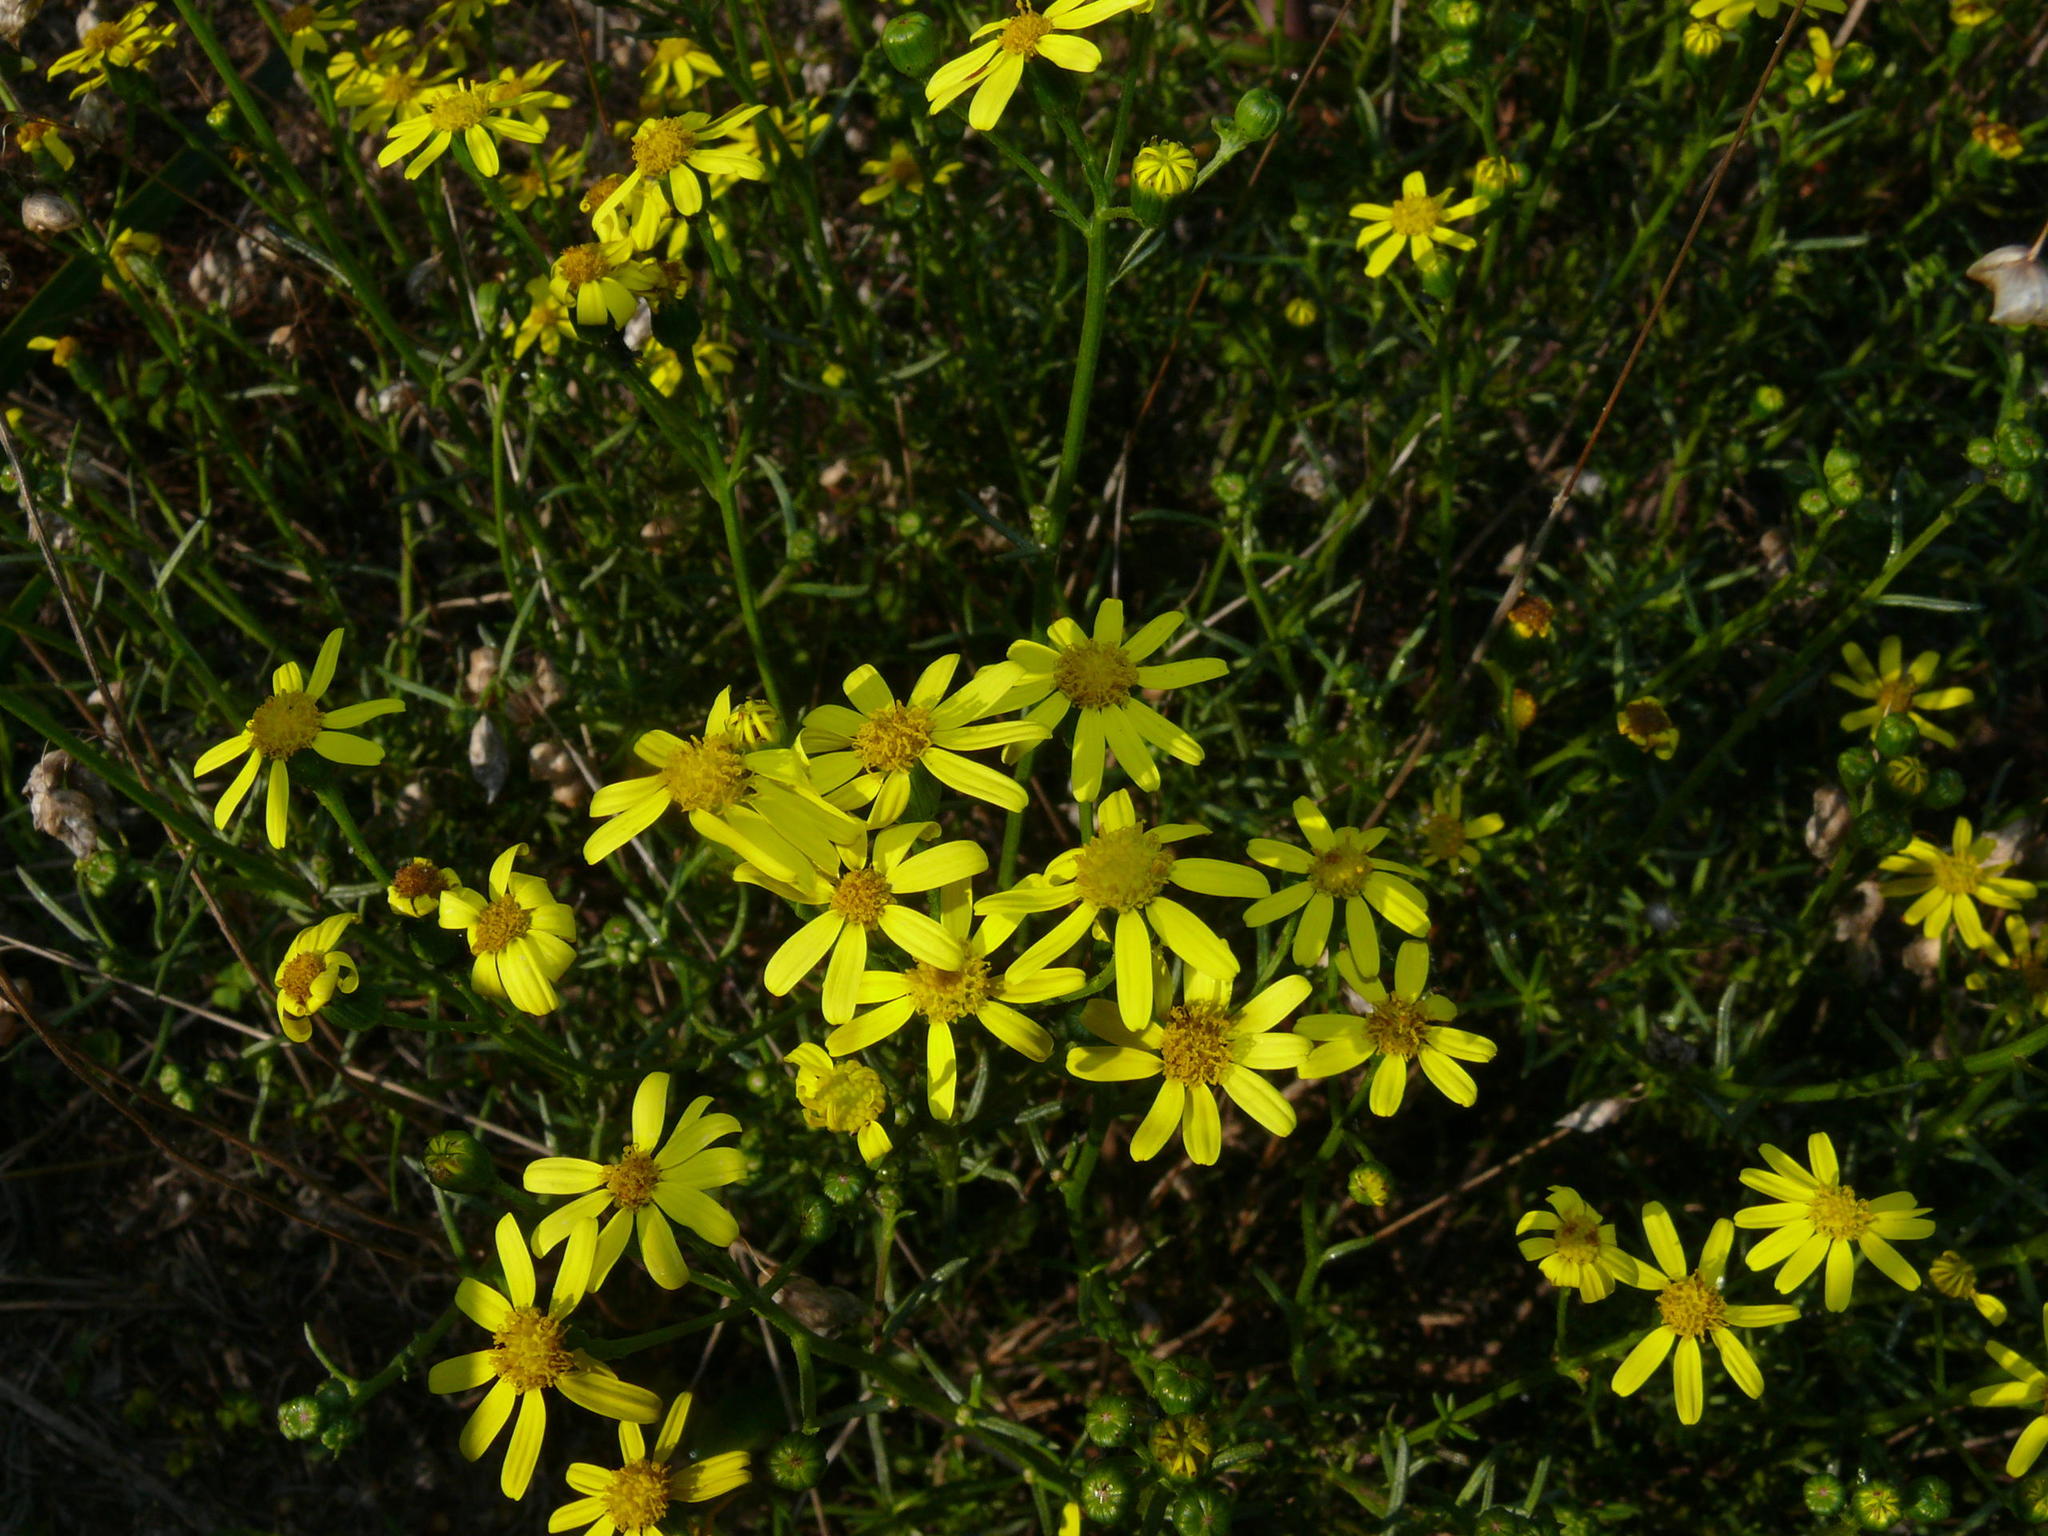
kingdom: Plantae
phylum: Tracheophyta
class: Magnoliopsida
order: Asterales
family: Asteraceae
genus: Senecio
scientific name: Senecio burchellii
